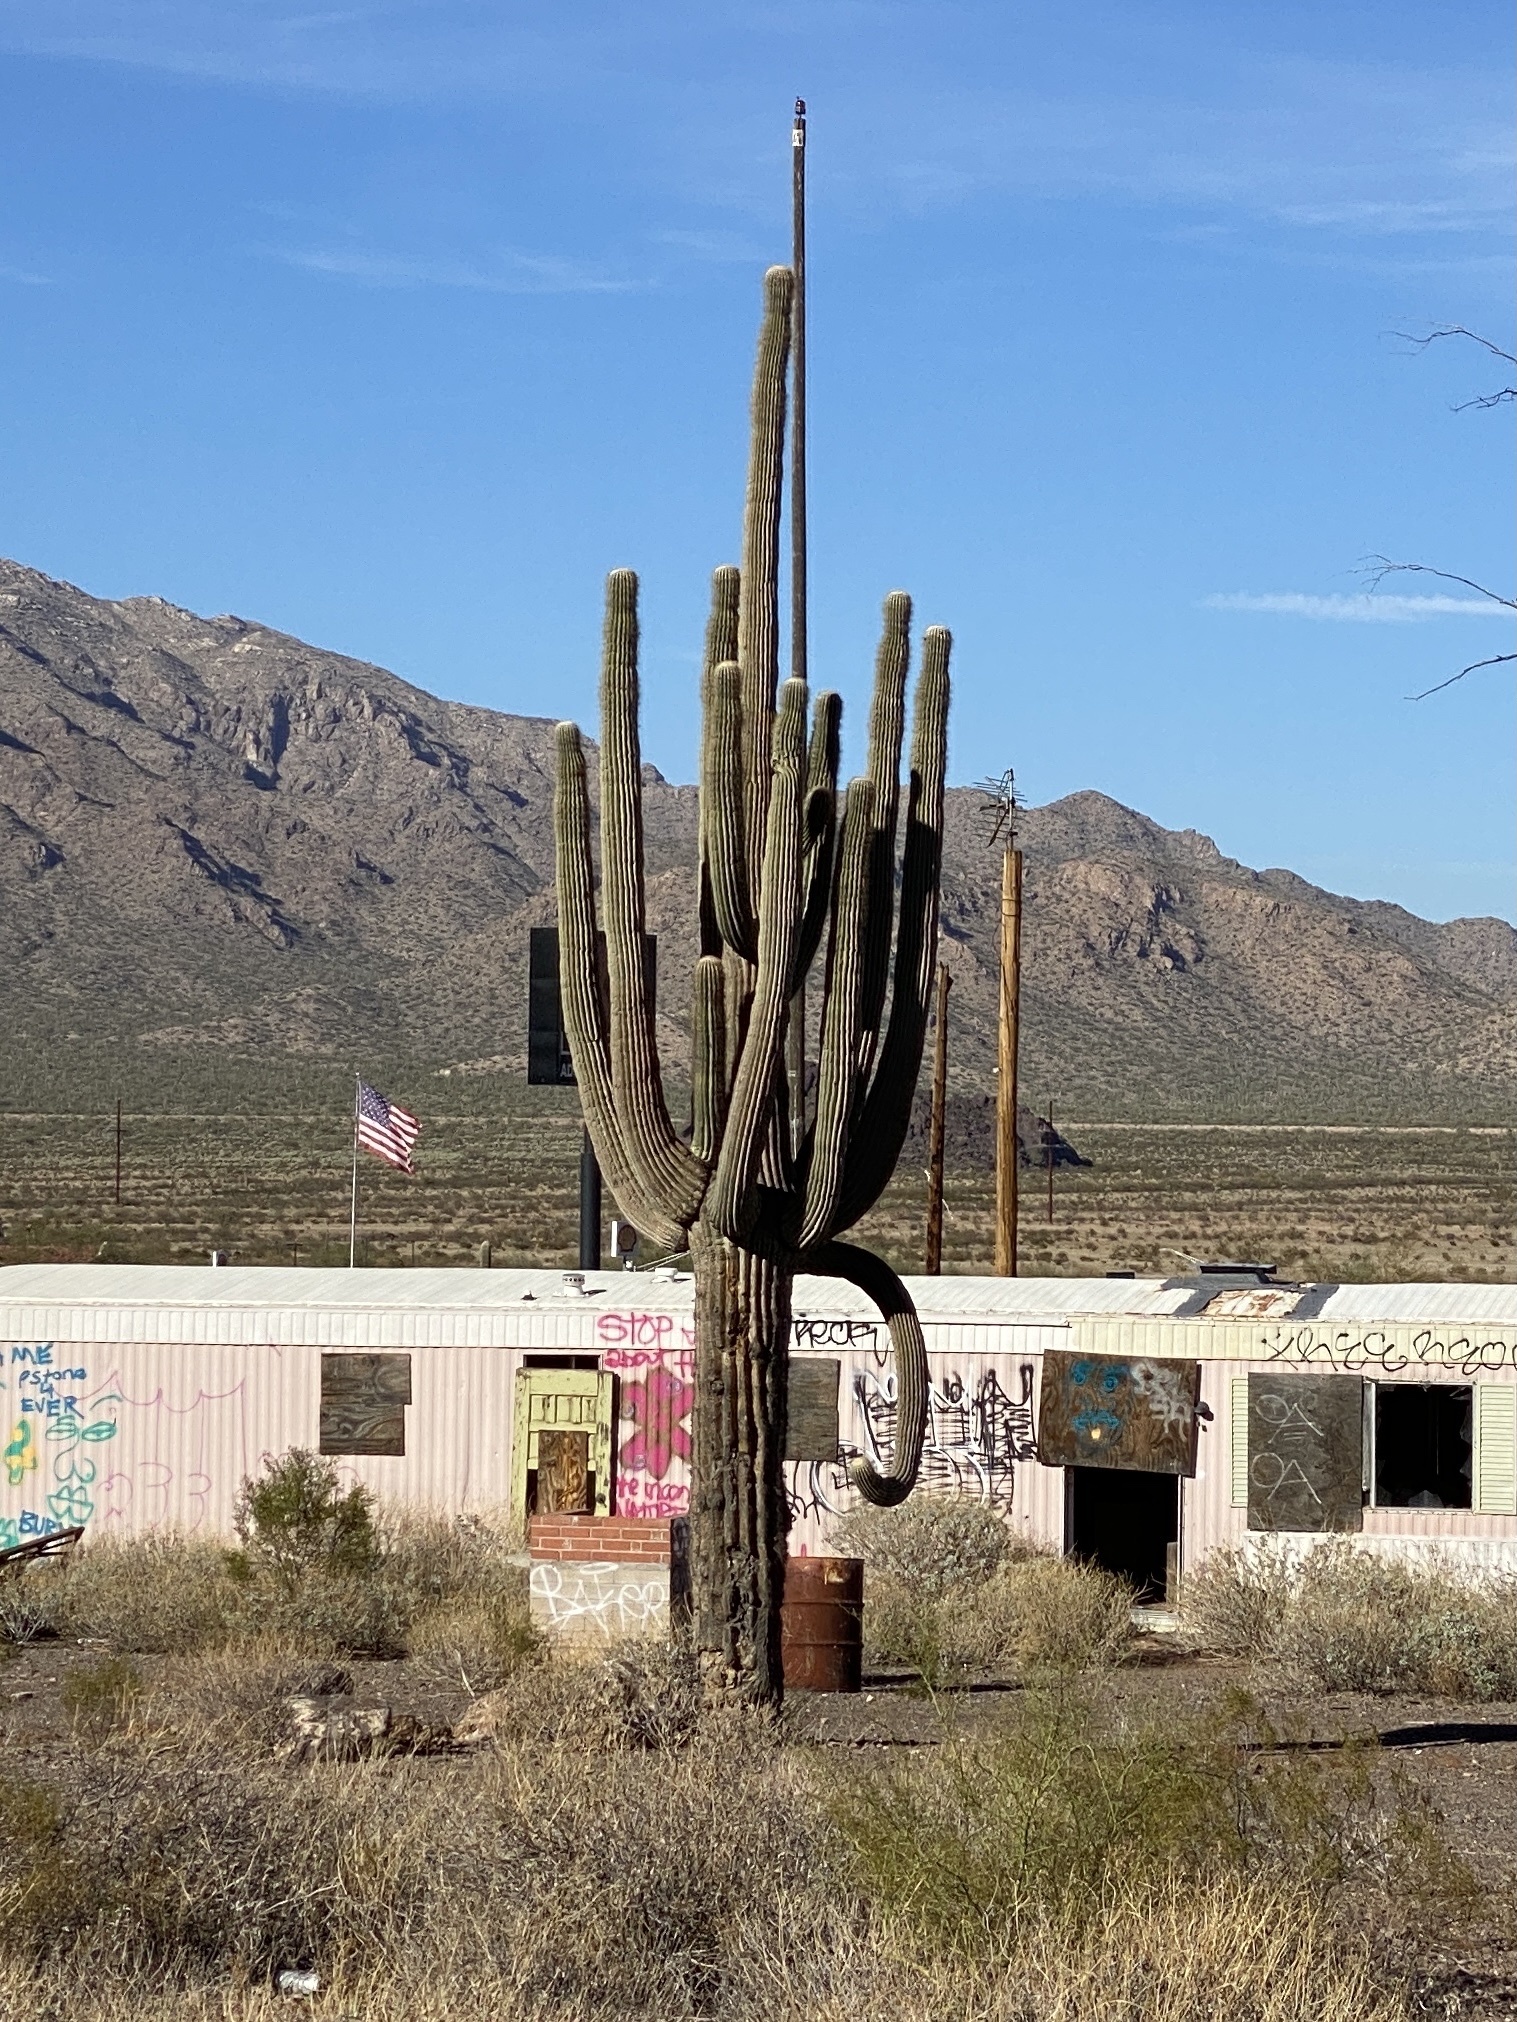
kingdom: Plantae
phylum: Tracheophyta
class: Magnoliopsida
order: Caryophyllales
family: Cactaceae
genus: Carnegiea
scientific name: Carnegiea gigantea
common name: Saguaro
